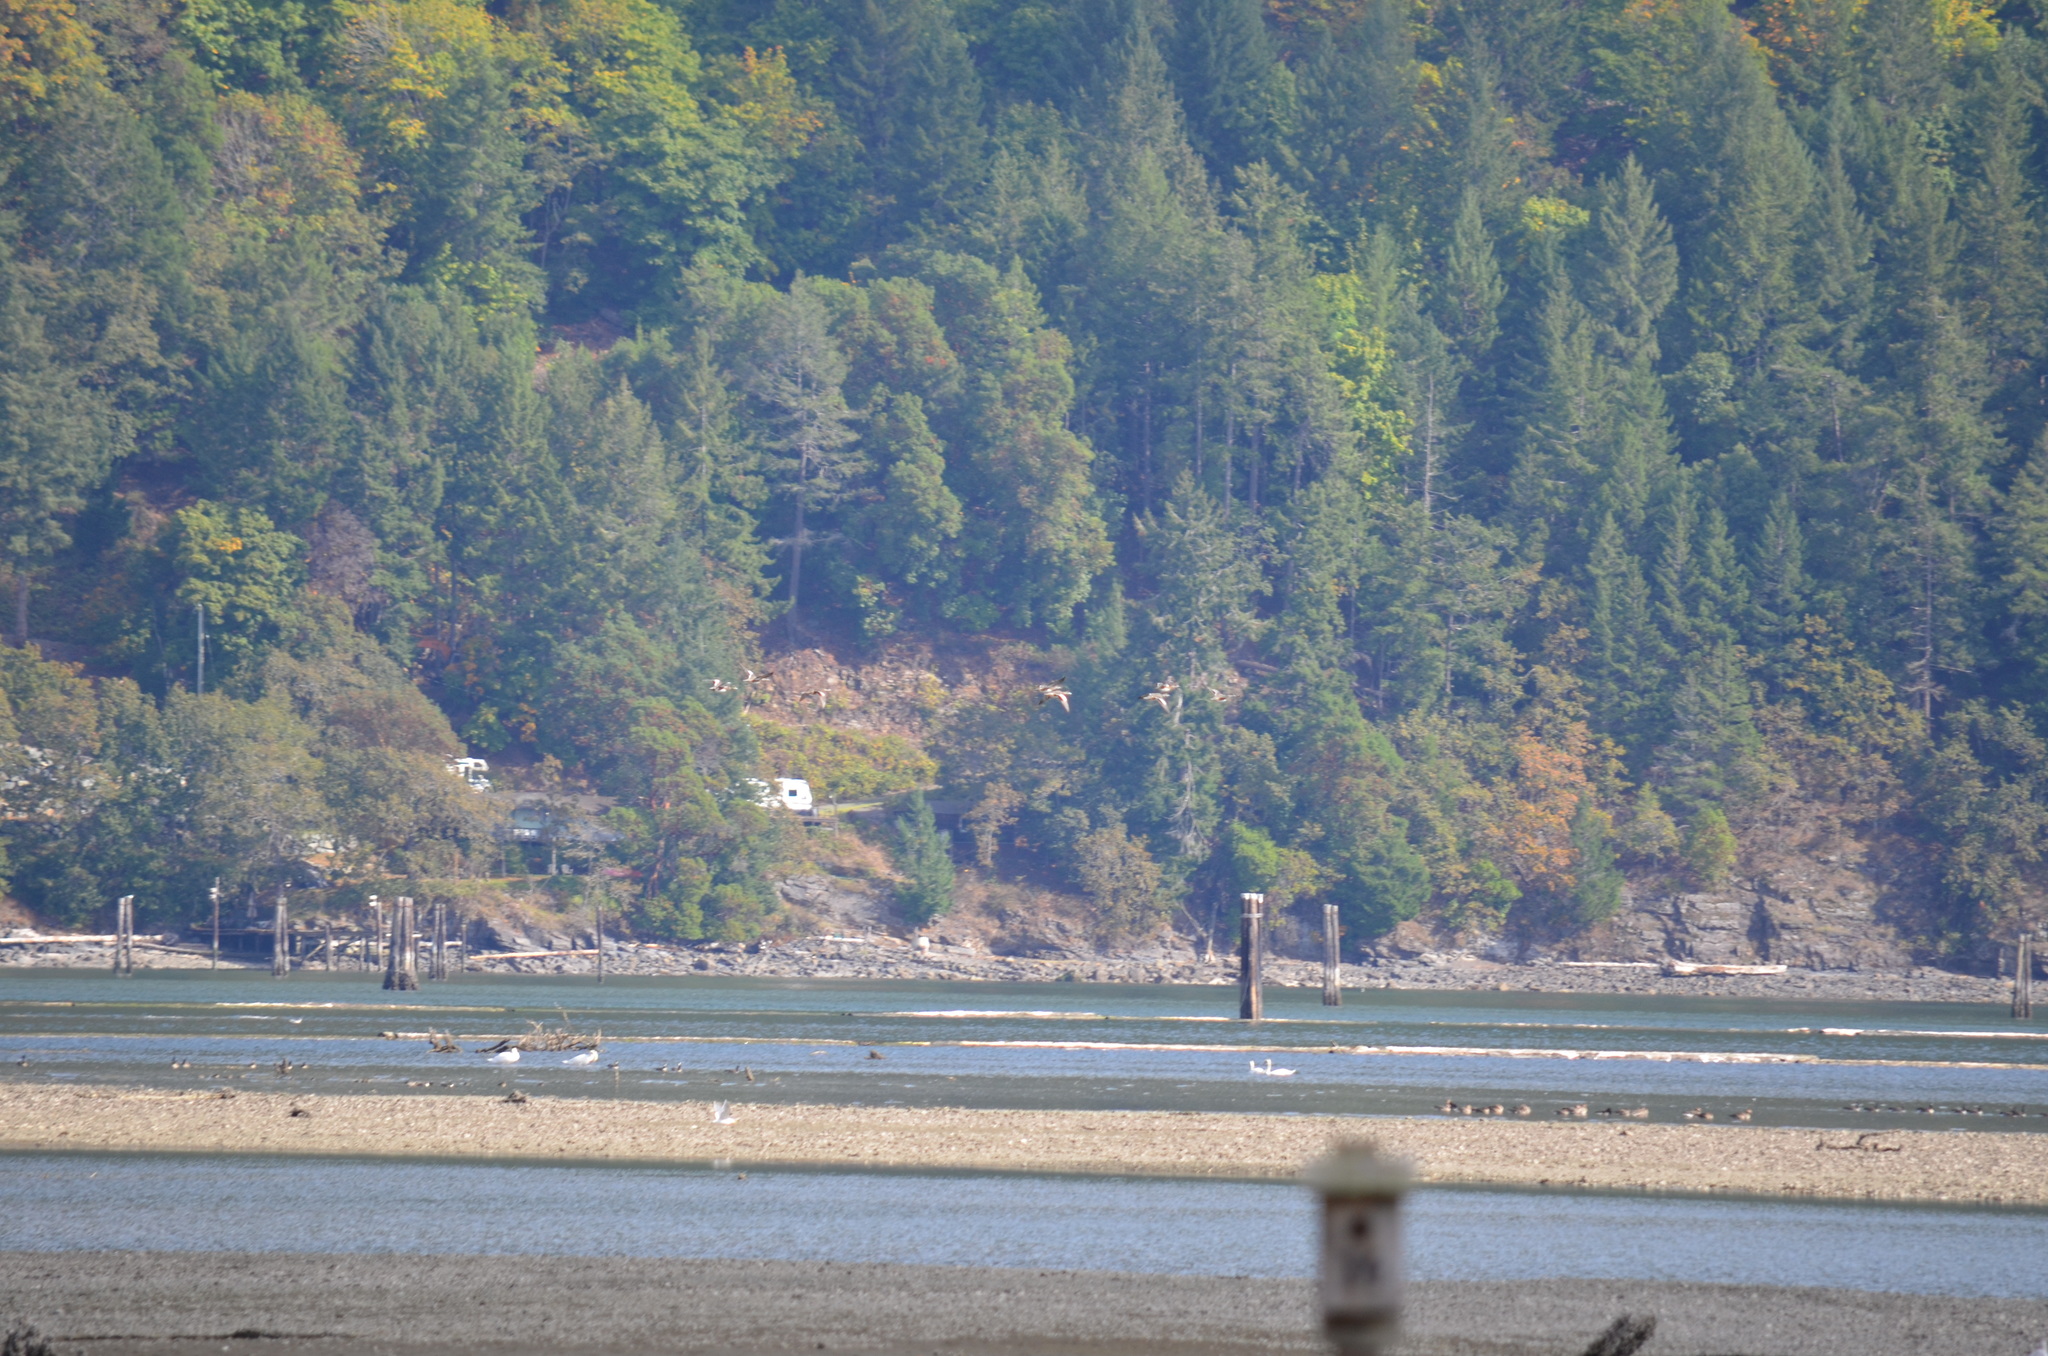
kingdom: Animalia
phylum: Chordata
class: Aves
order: Anseriformes
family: Anatidae
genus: Cygnus
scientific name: Cygnus olor
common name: Mute swan
